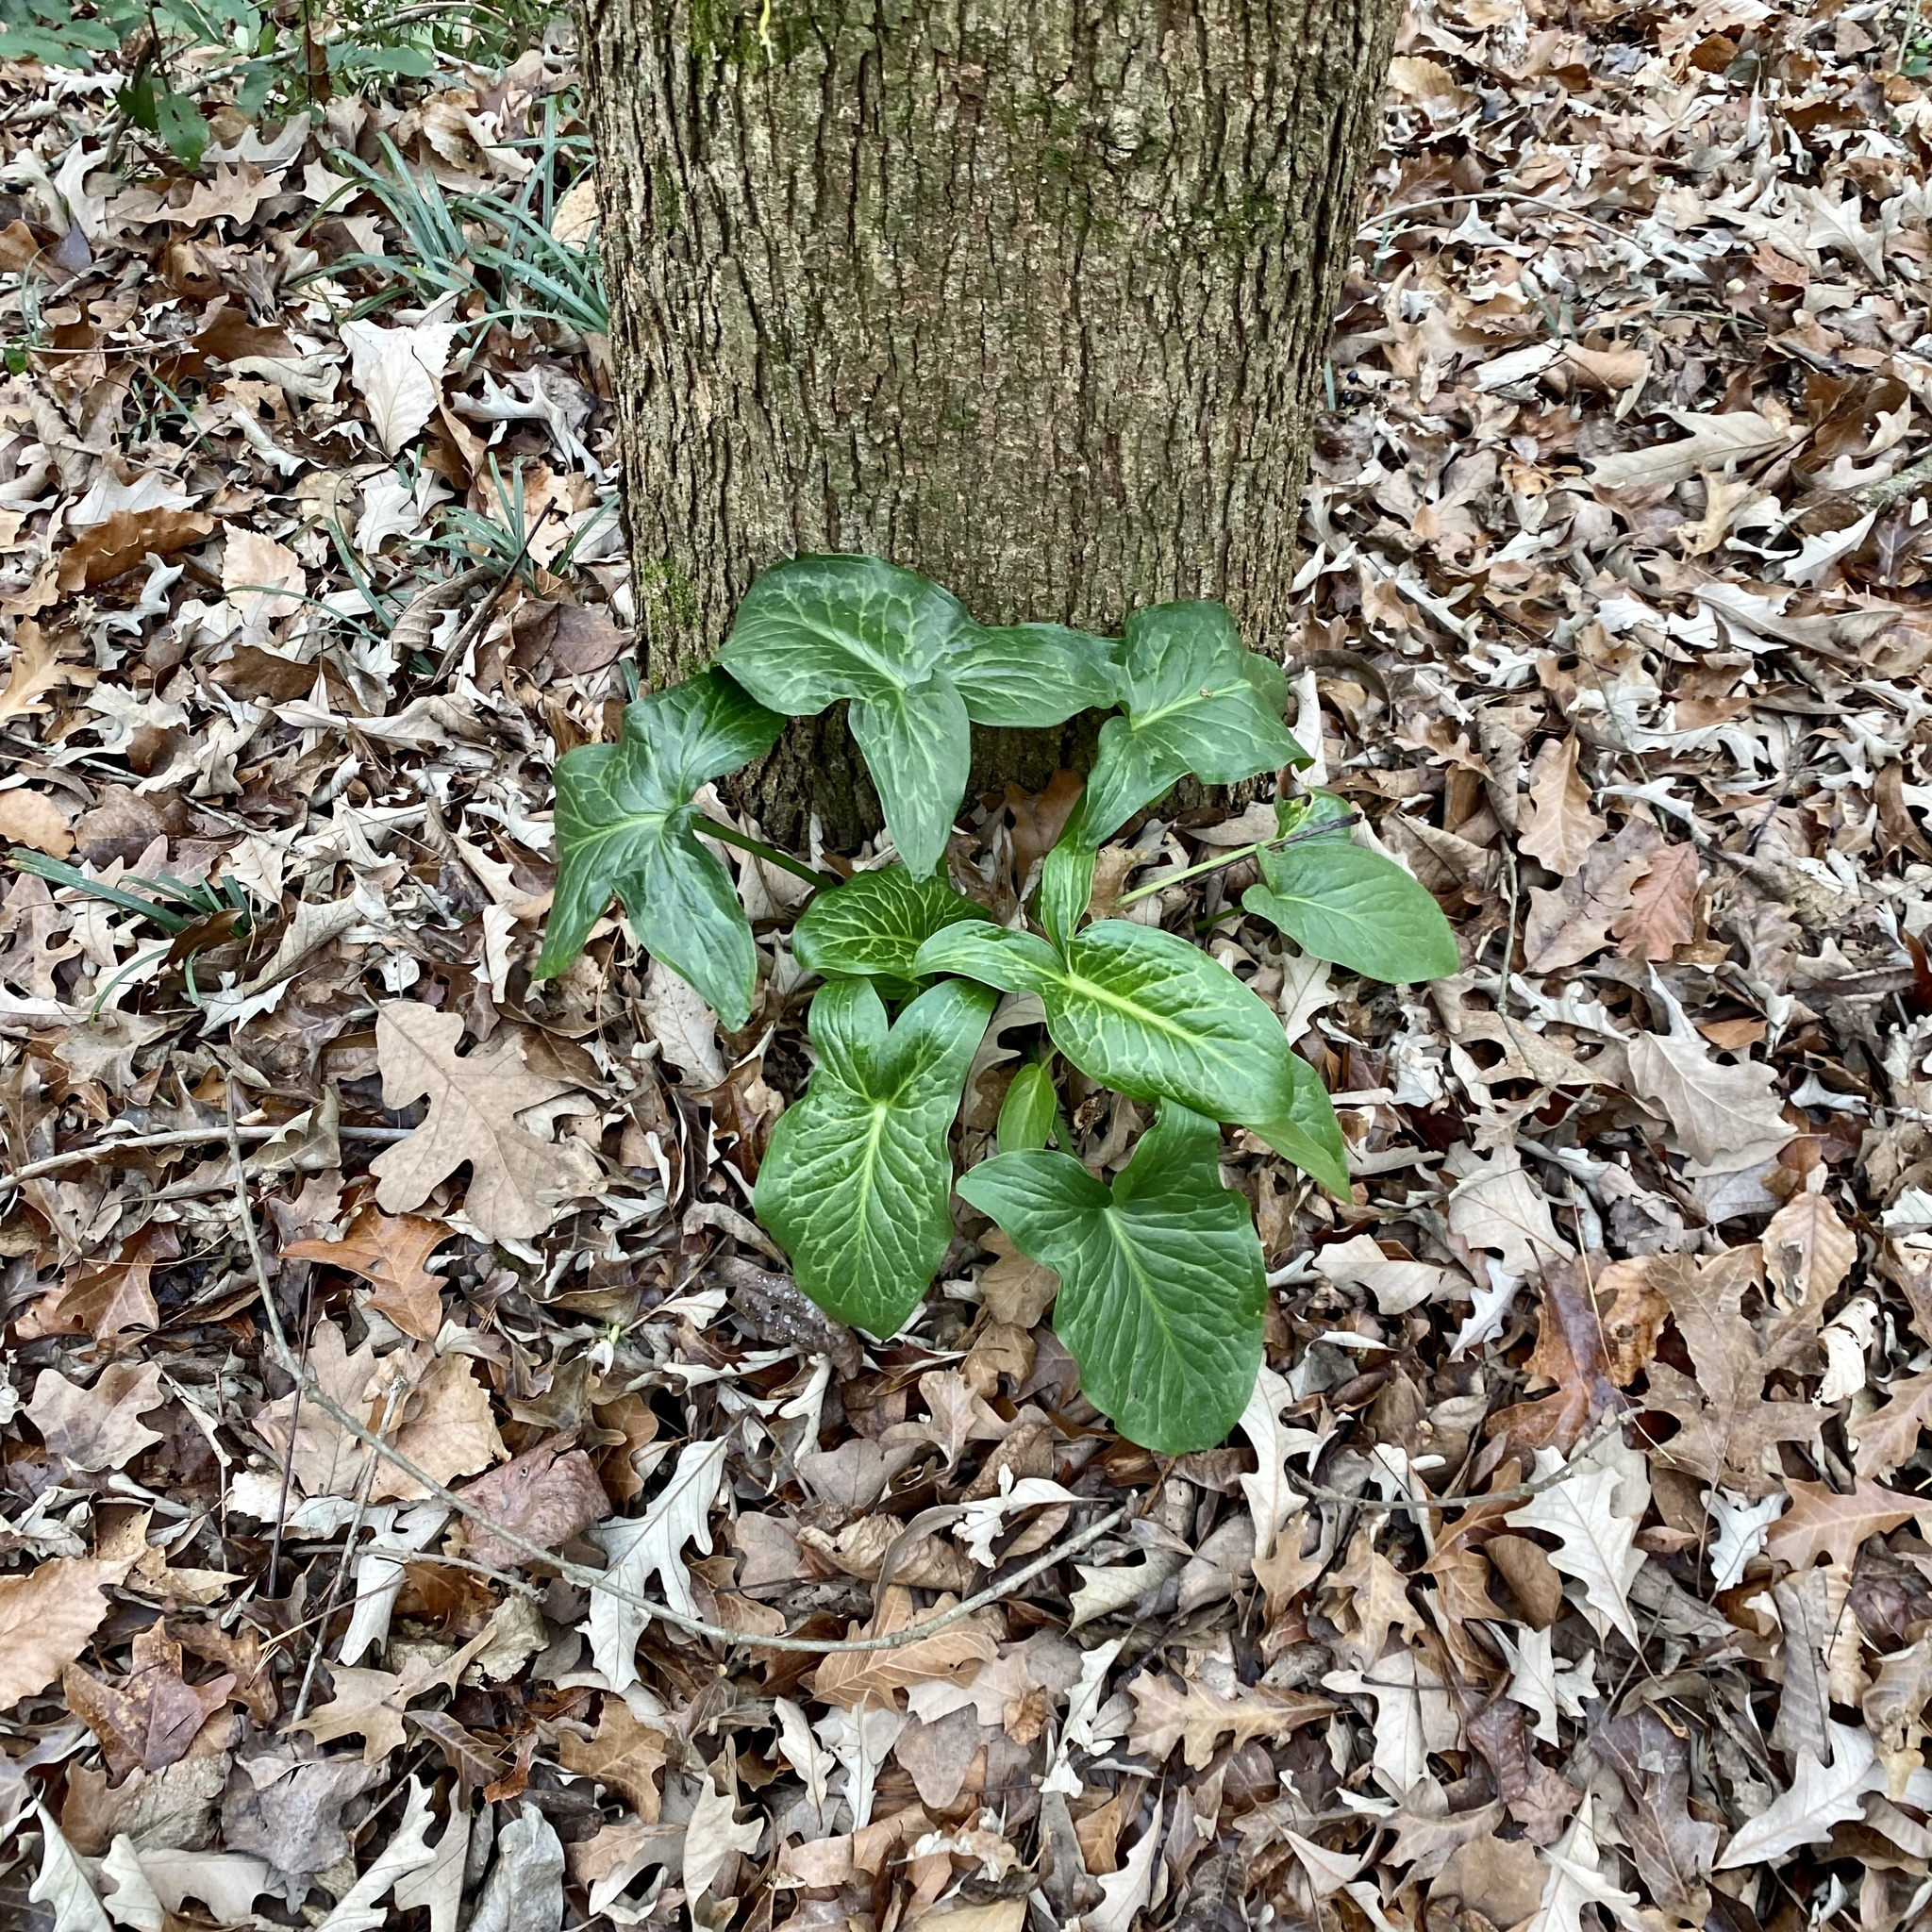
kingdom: Plantae
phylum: Tracheophyta
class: Liliopsida
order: Alismatales
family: Araceae
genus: Arum
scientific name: Arum italicum
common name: Italian lords-and-ladies
